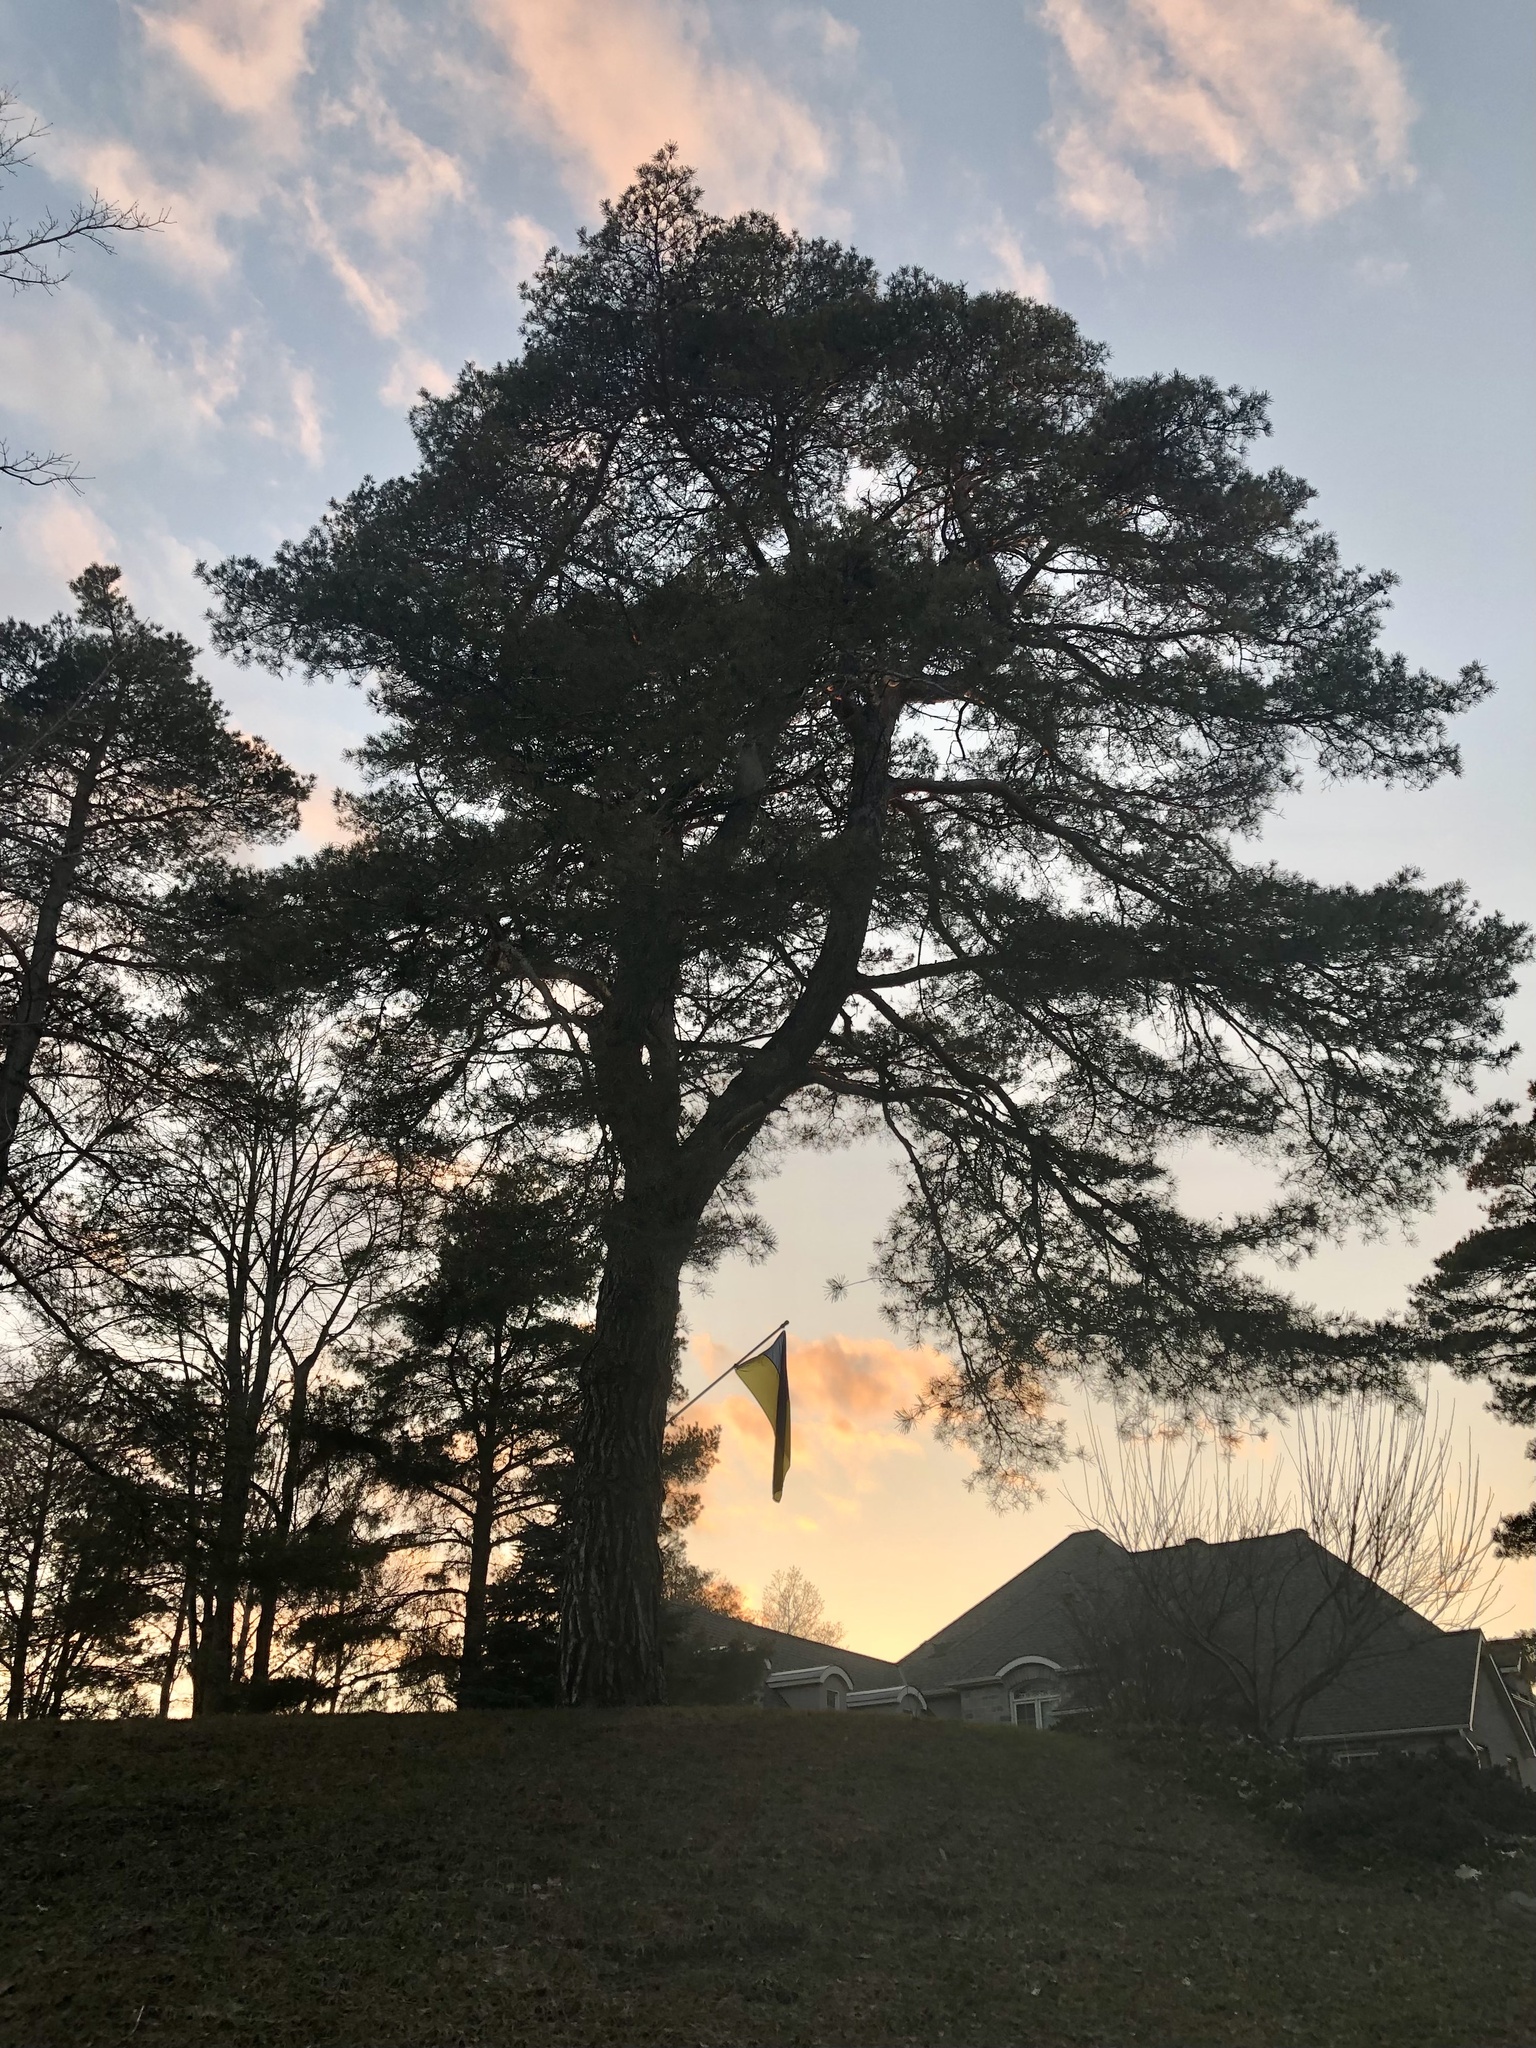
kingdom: Plantae
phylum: Tracheophyta
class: Pinopsida
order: Pinales
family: Pinaceae
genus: Pinus
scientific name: Pinus sylvestris
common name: Scots pine
